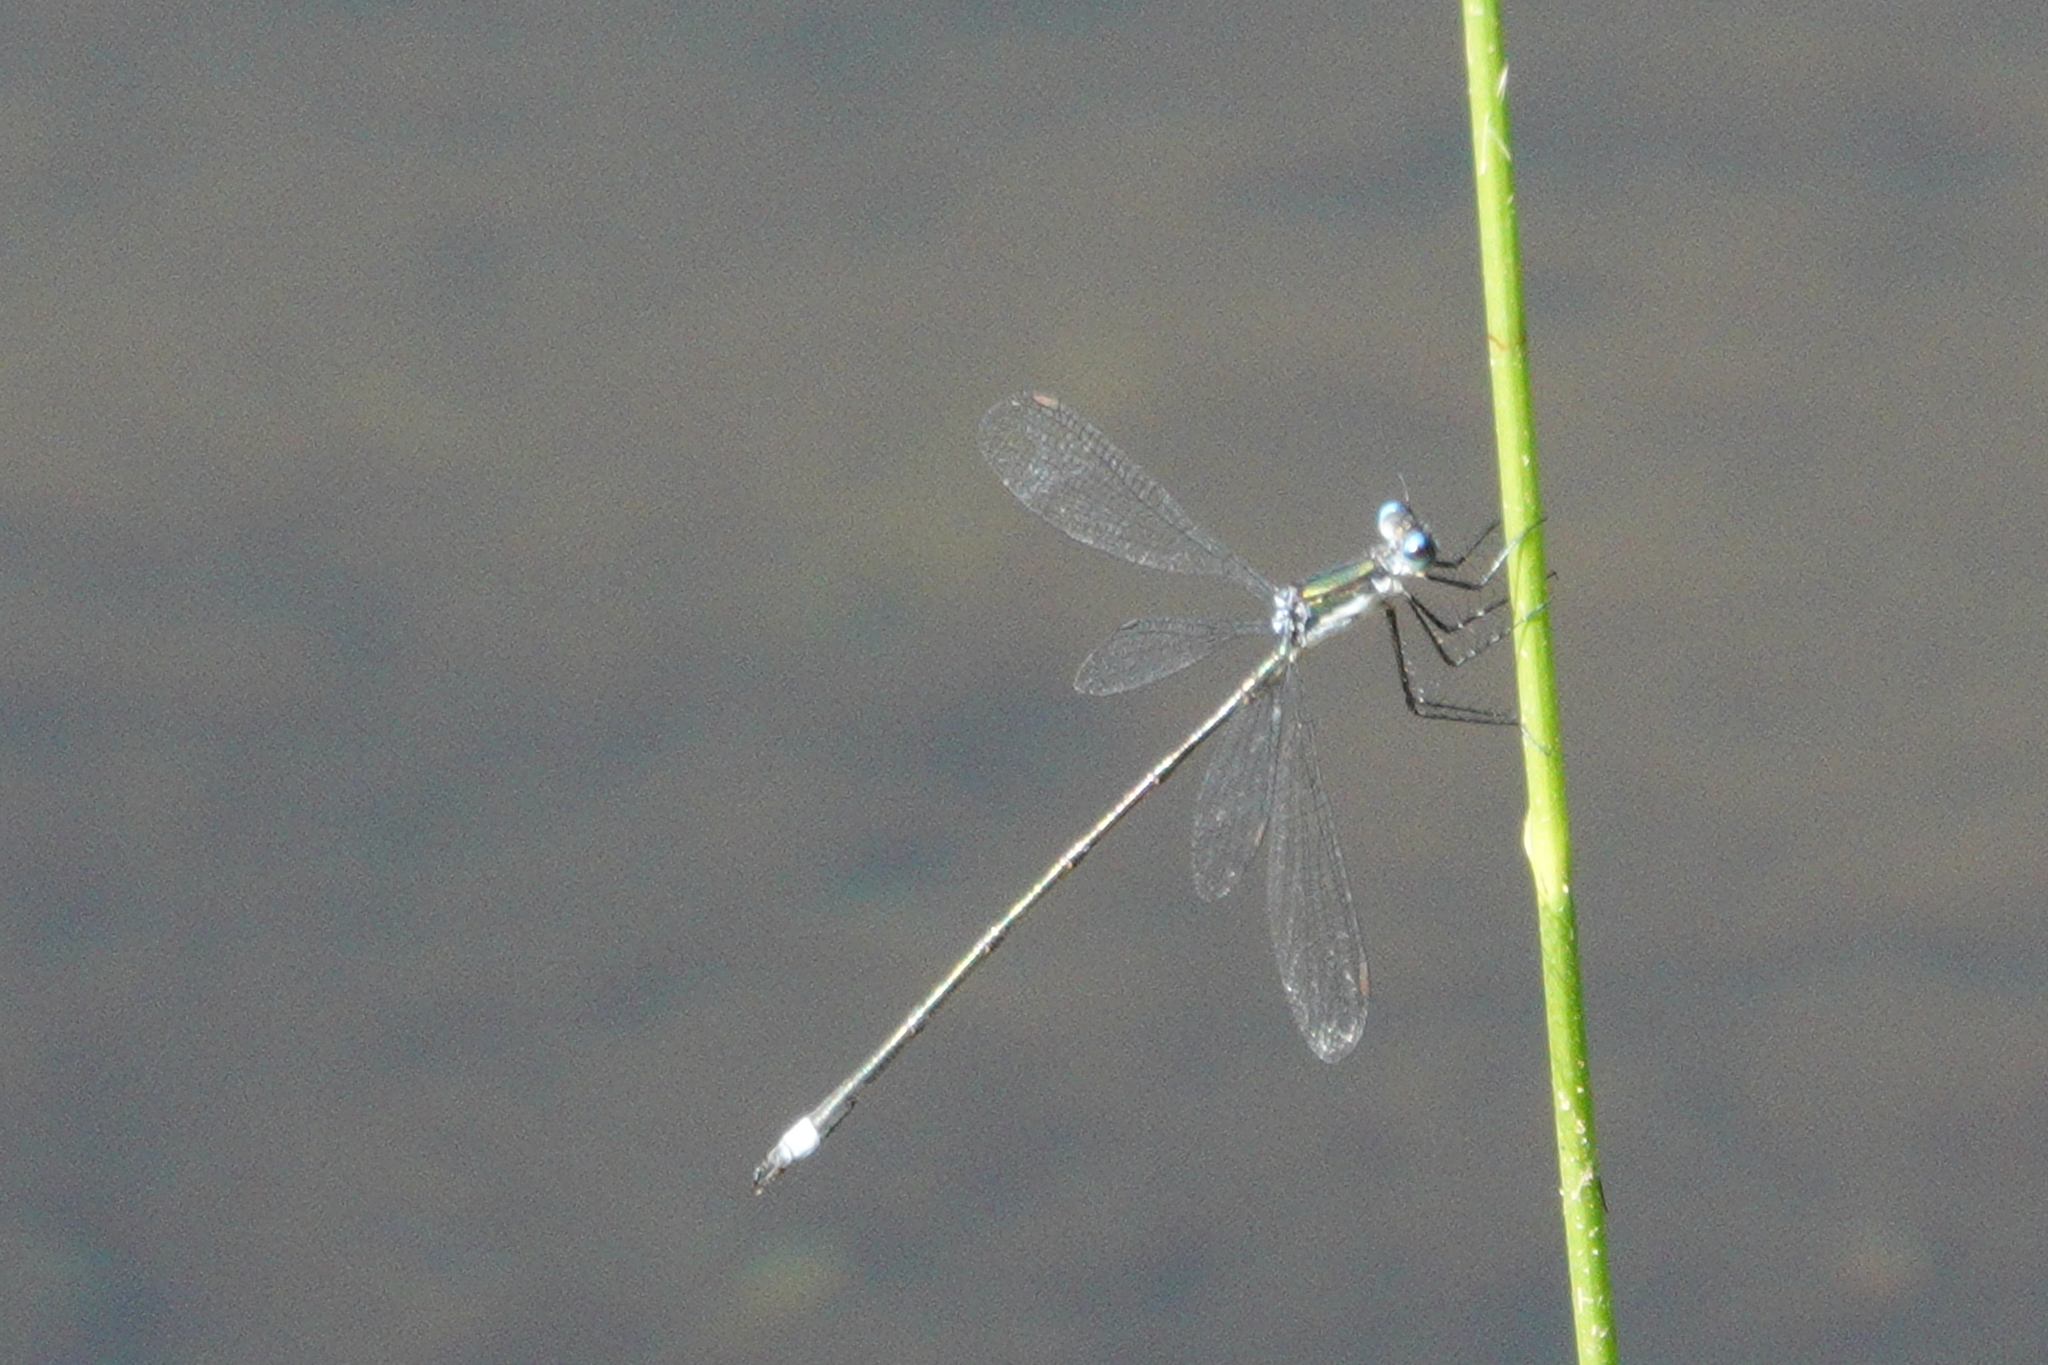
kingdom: Animalia
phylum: Arthropoda
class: Insecta
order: Odonata
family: Lestidae
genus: Lestes
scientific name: Lestes vigilax
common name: Swamp spreadwing
